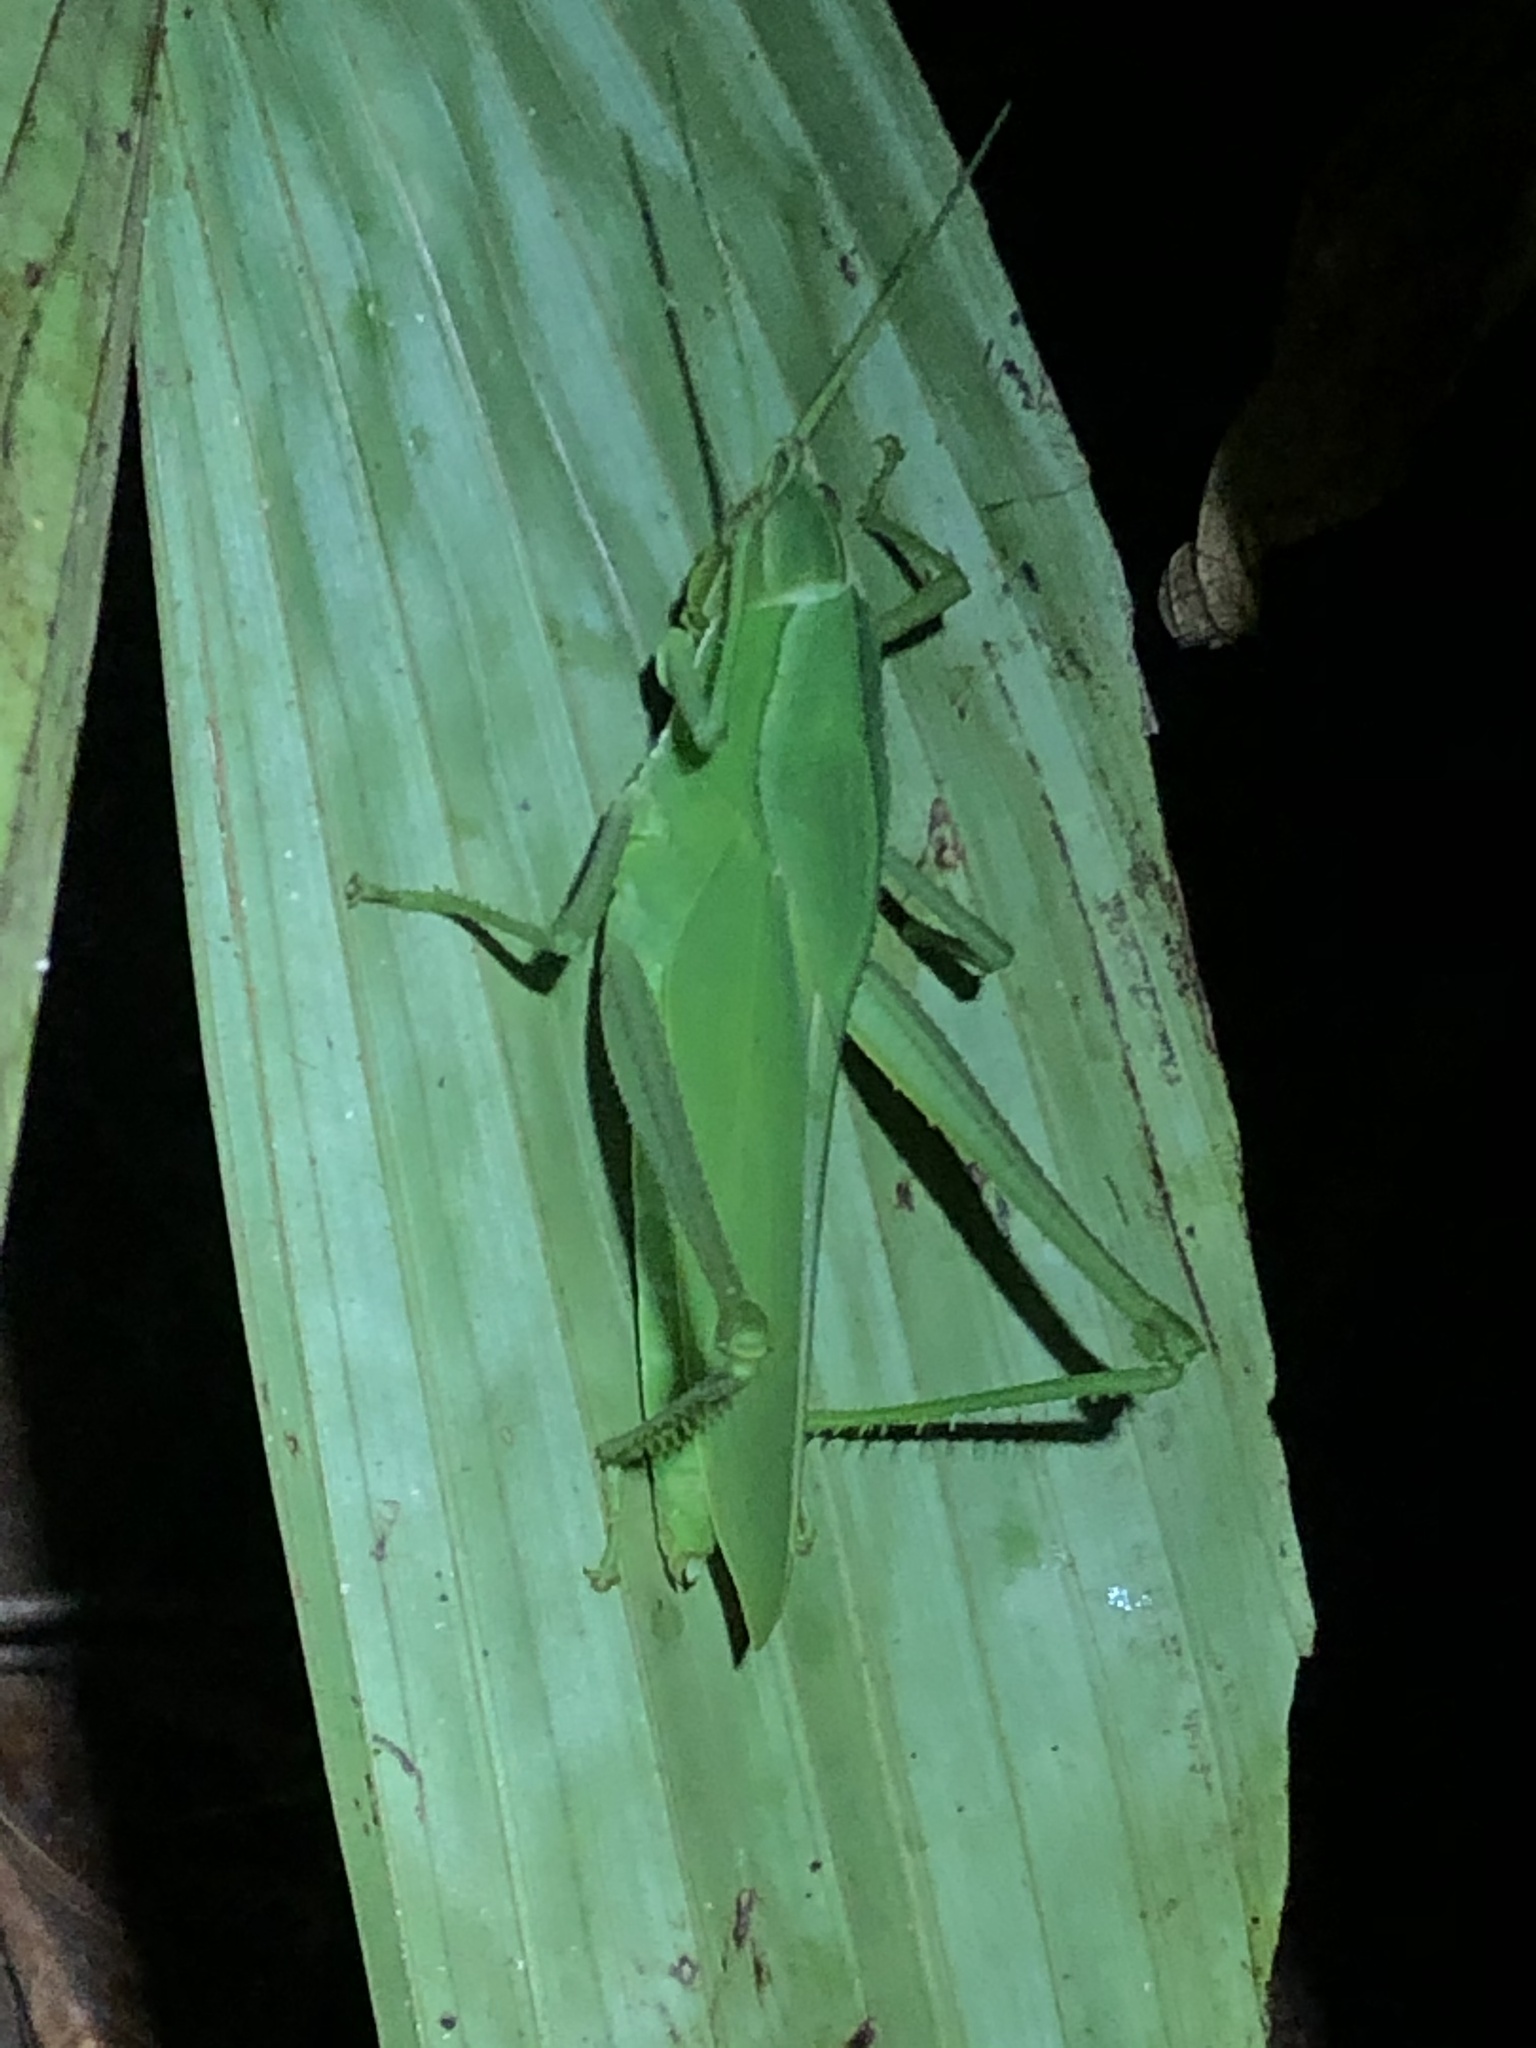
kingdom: Animalia
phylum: Arthropoda
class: Insecta
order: Orthoptera
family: Romaleidae
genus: Prionolopha
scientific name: Prionolopha serrata
